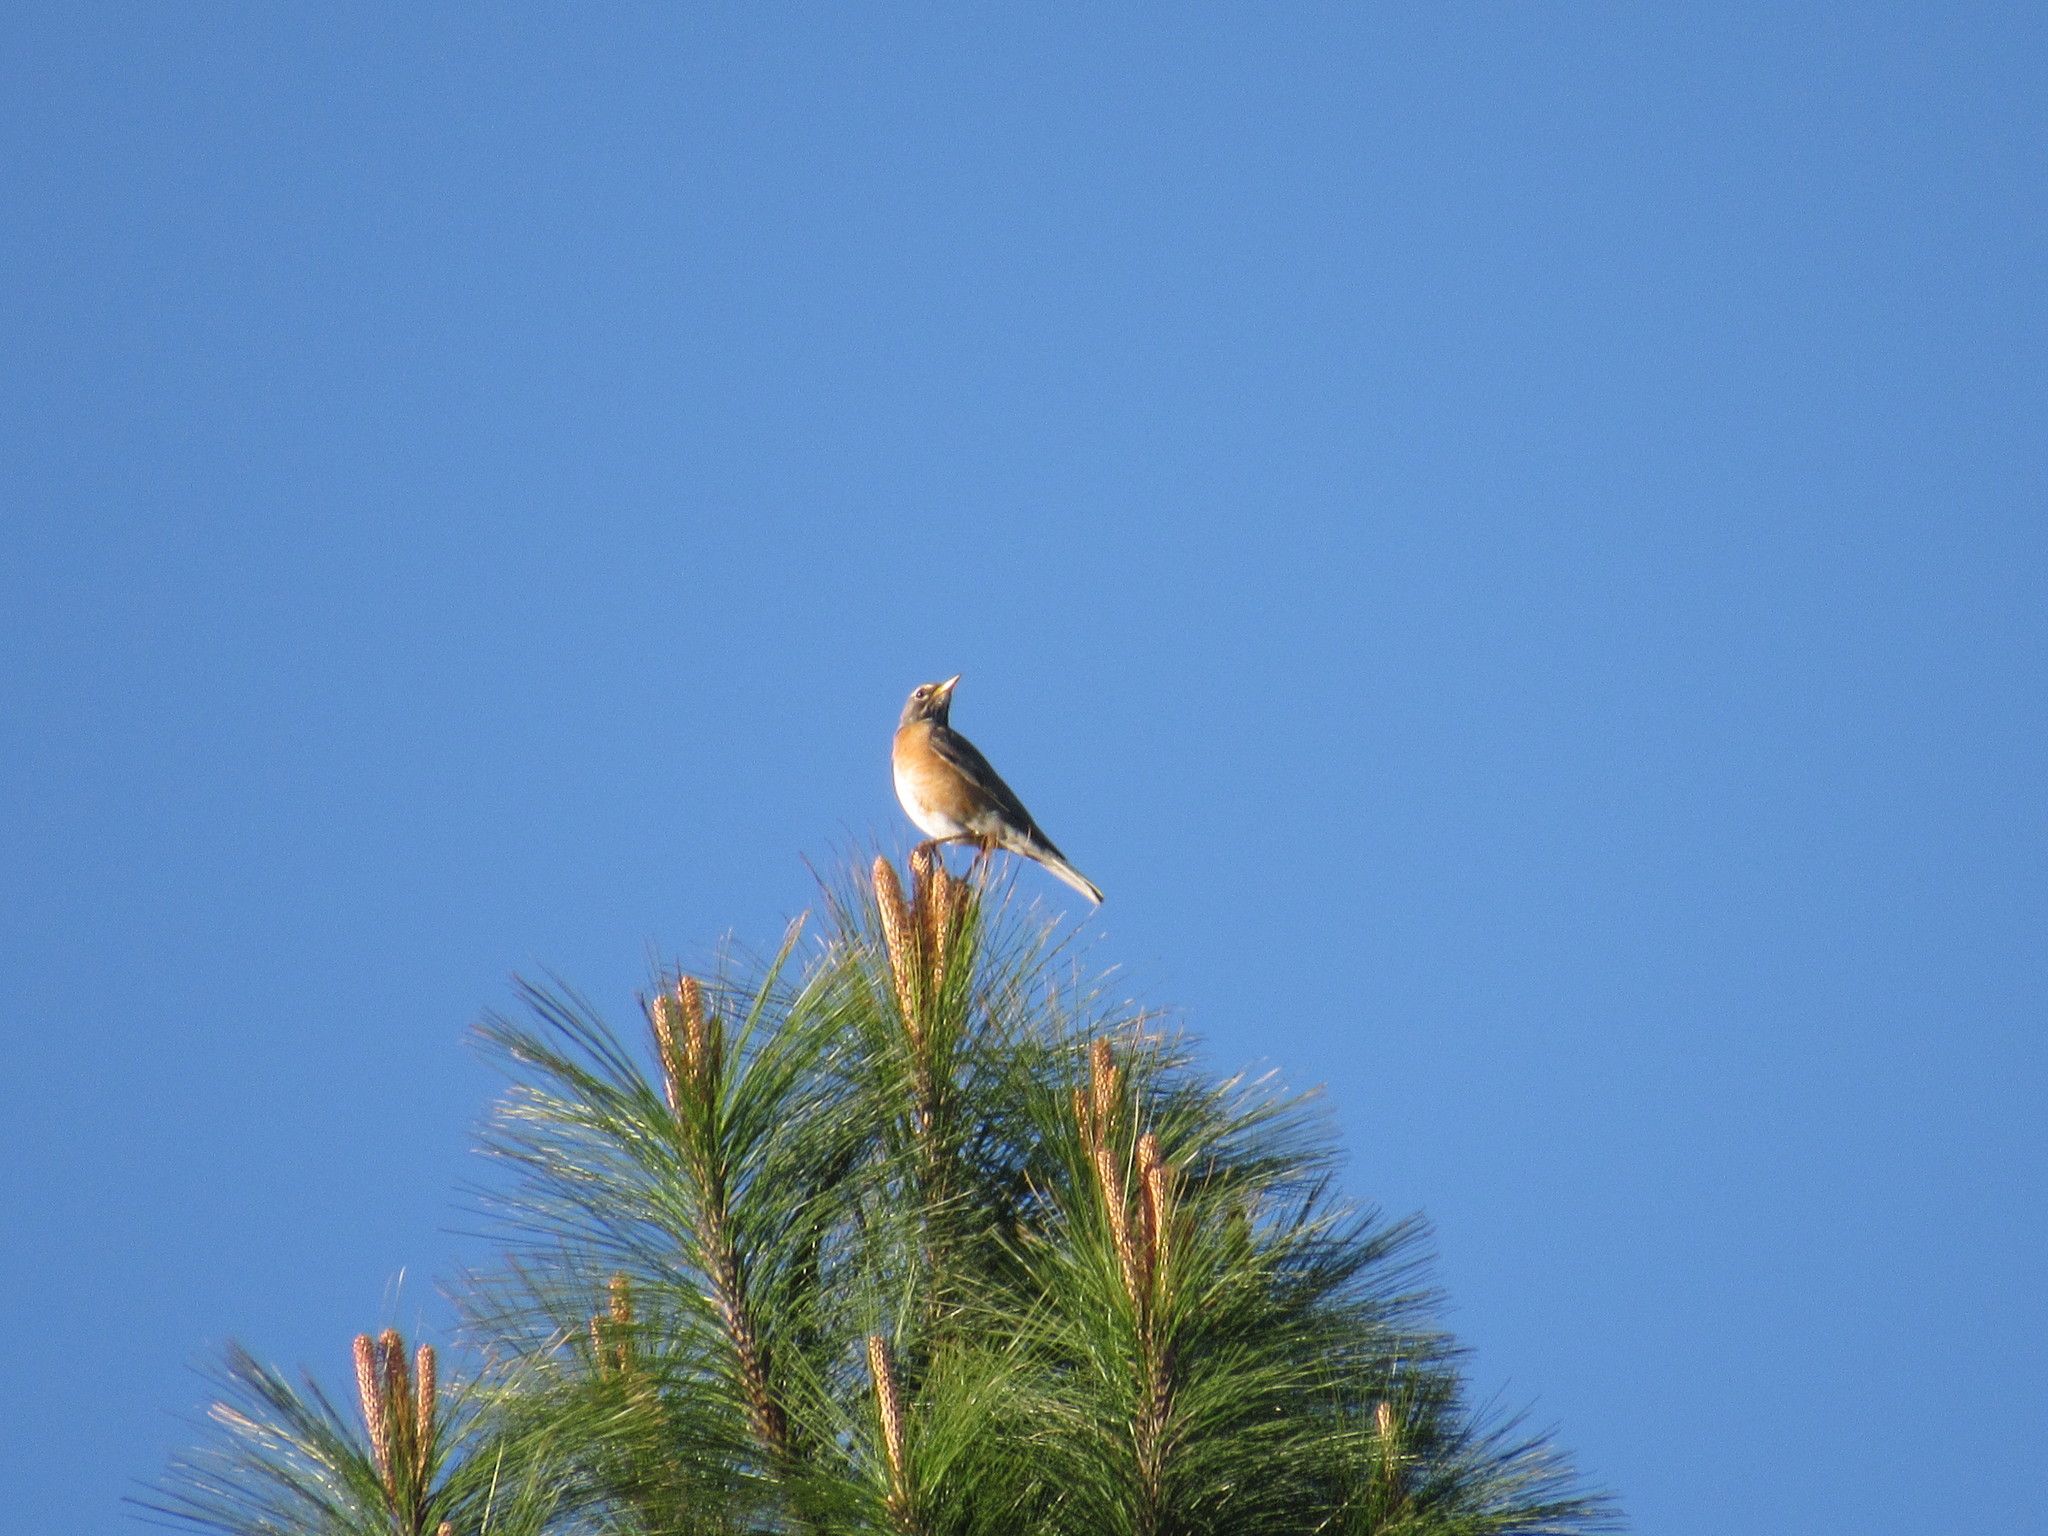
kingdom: Animalia
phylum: Chordata
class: Aves
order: Passeriformes
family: Turdidae
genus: Turdus
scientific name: Turdus migratorius
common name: American robin
